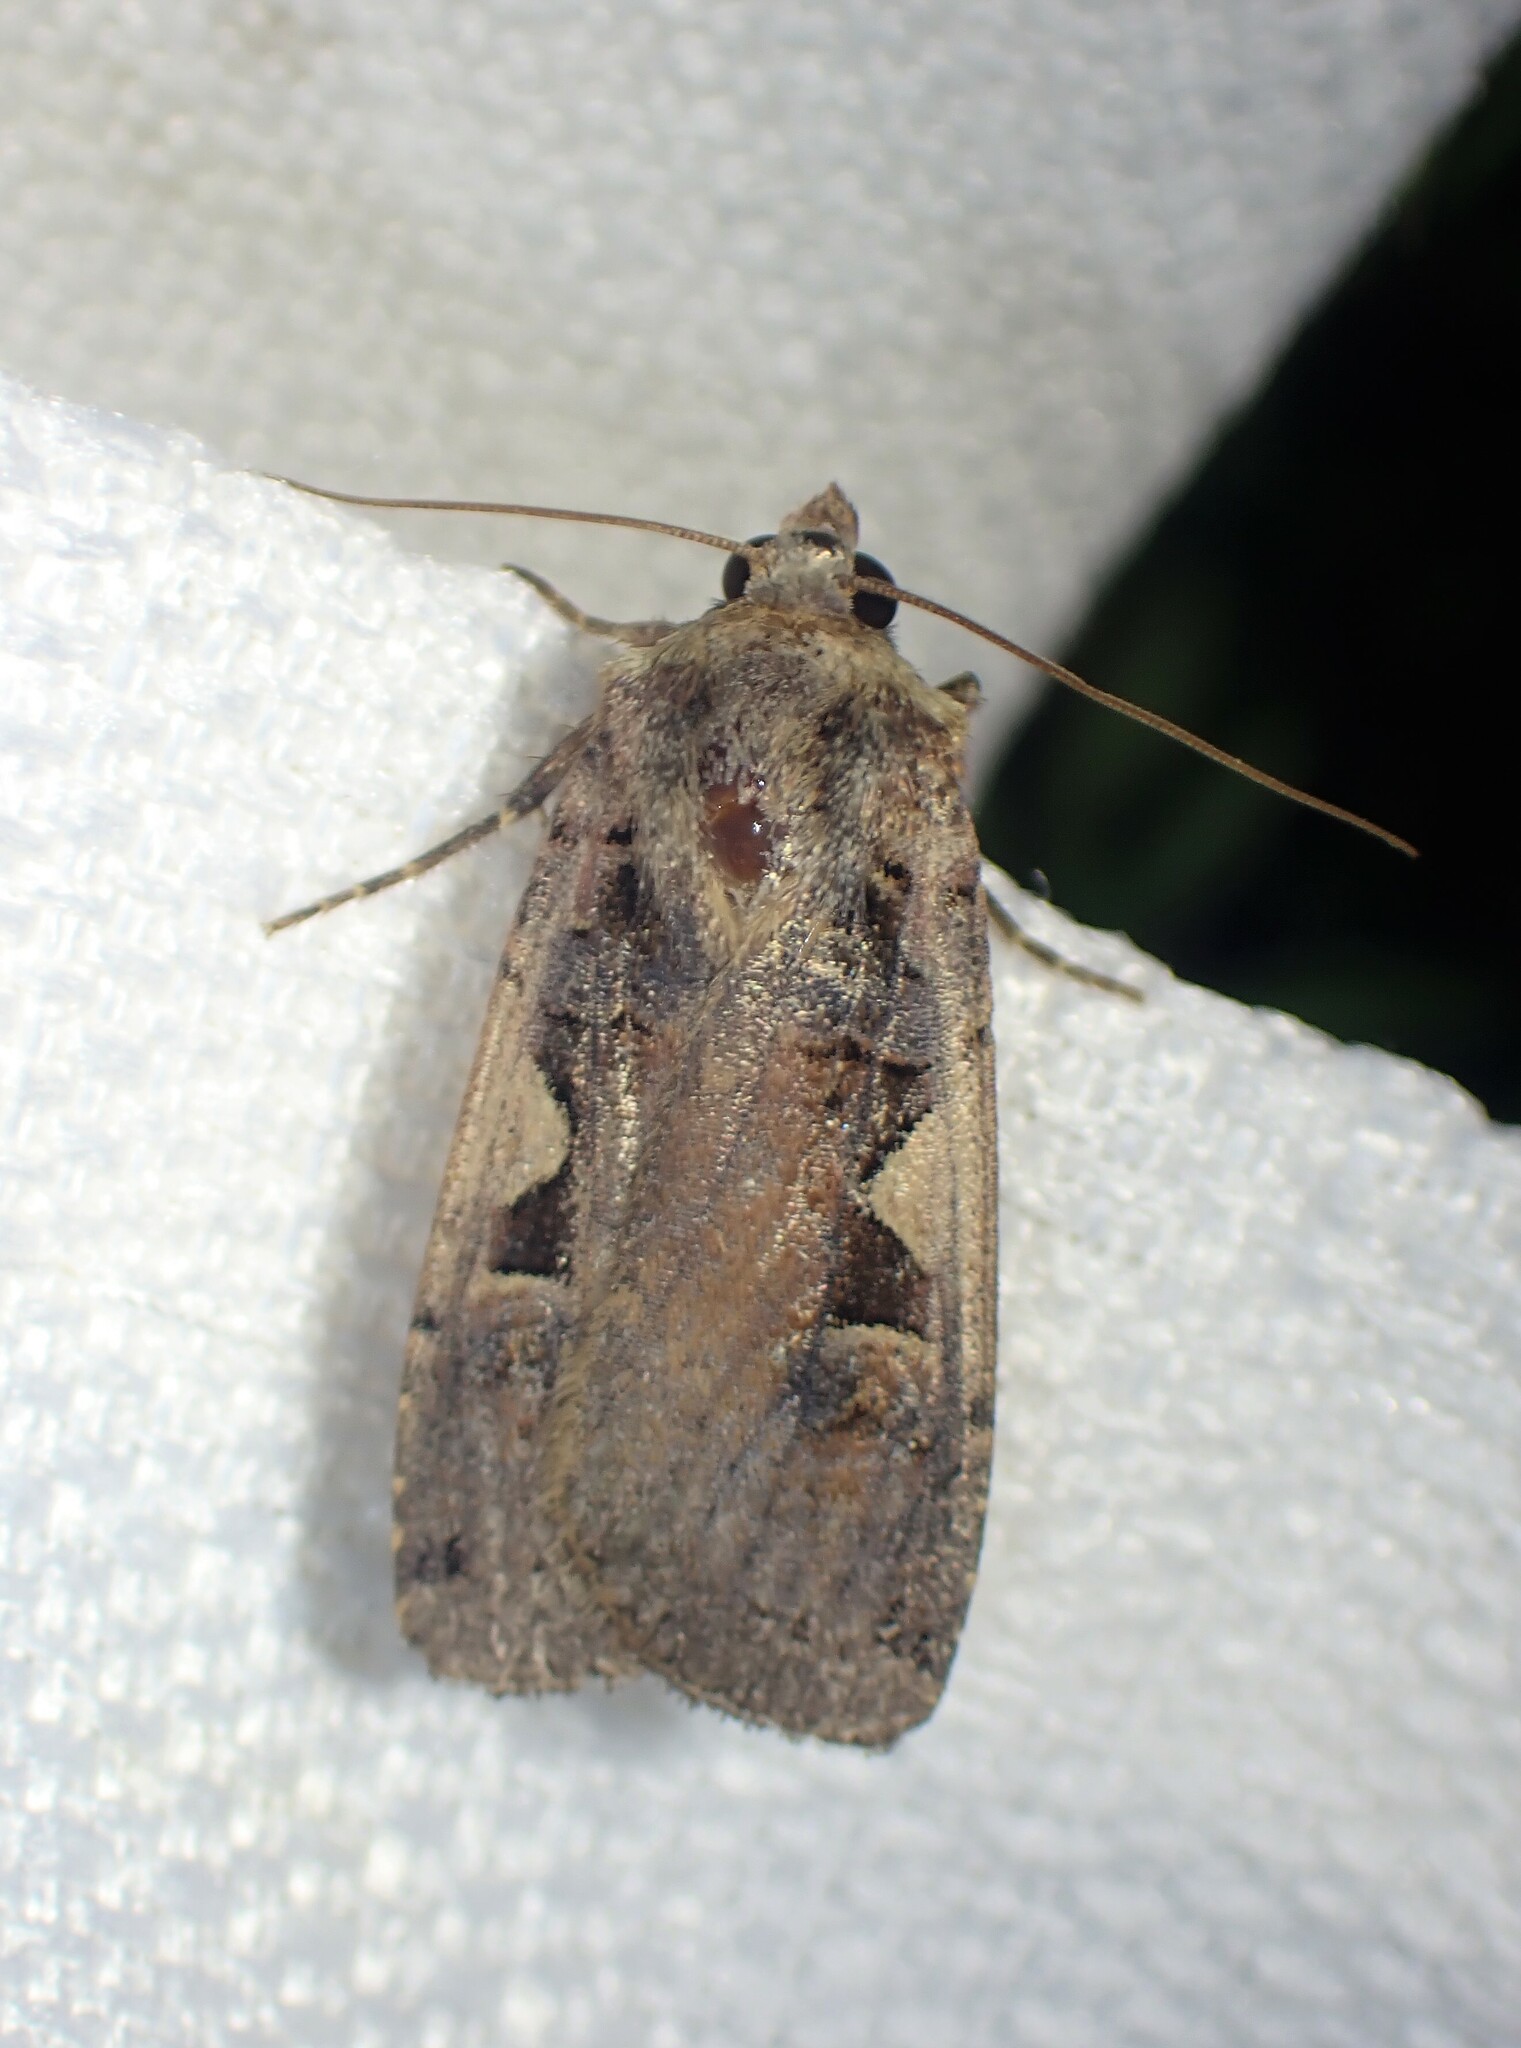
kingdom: Animalia
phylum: Arthropoda
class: Insecta
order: Lepidoptera
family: Noctuidae
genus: Xestia
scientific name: Xestia c-nigrum
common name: Setaceous hebrew character
